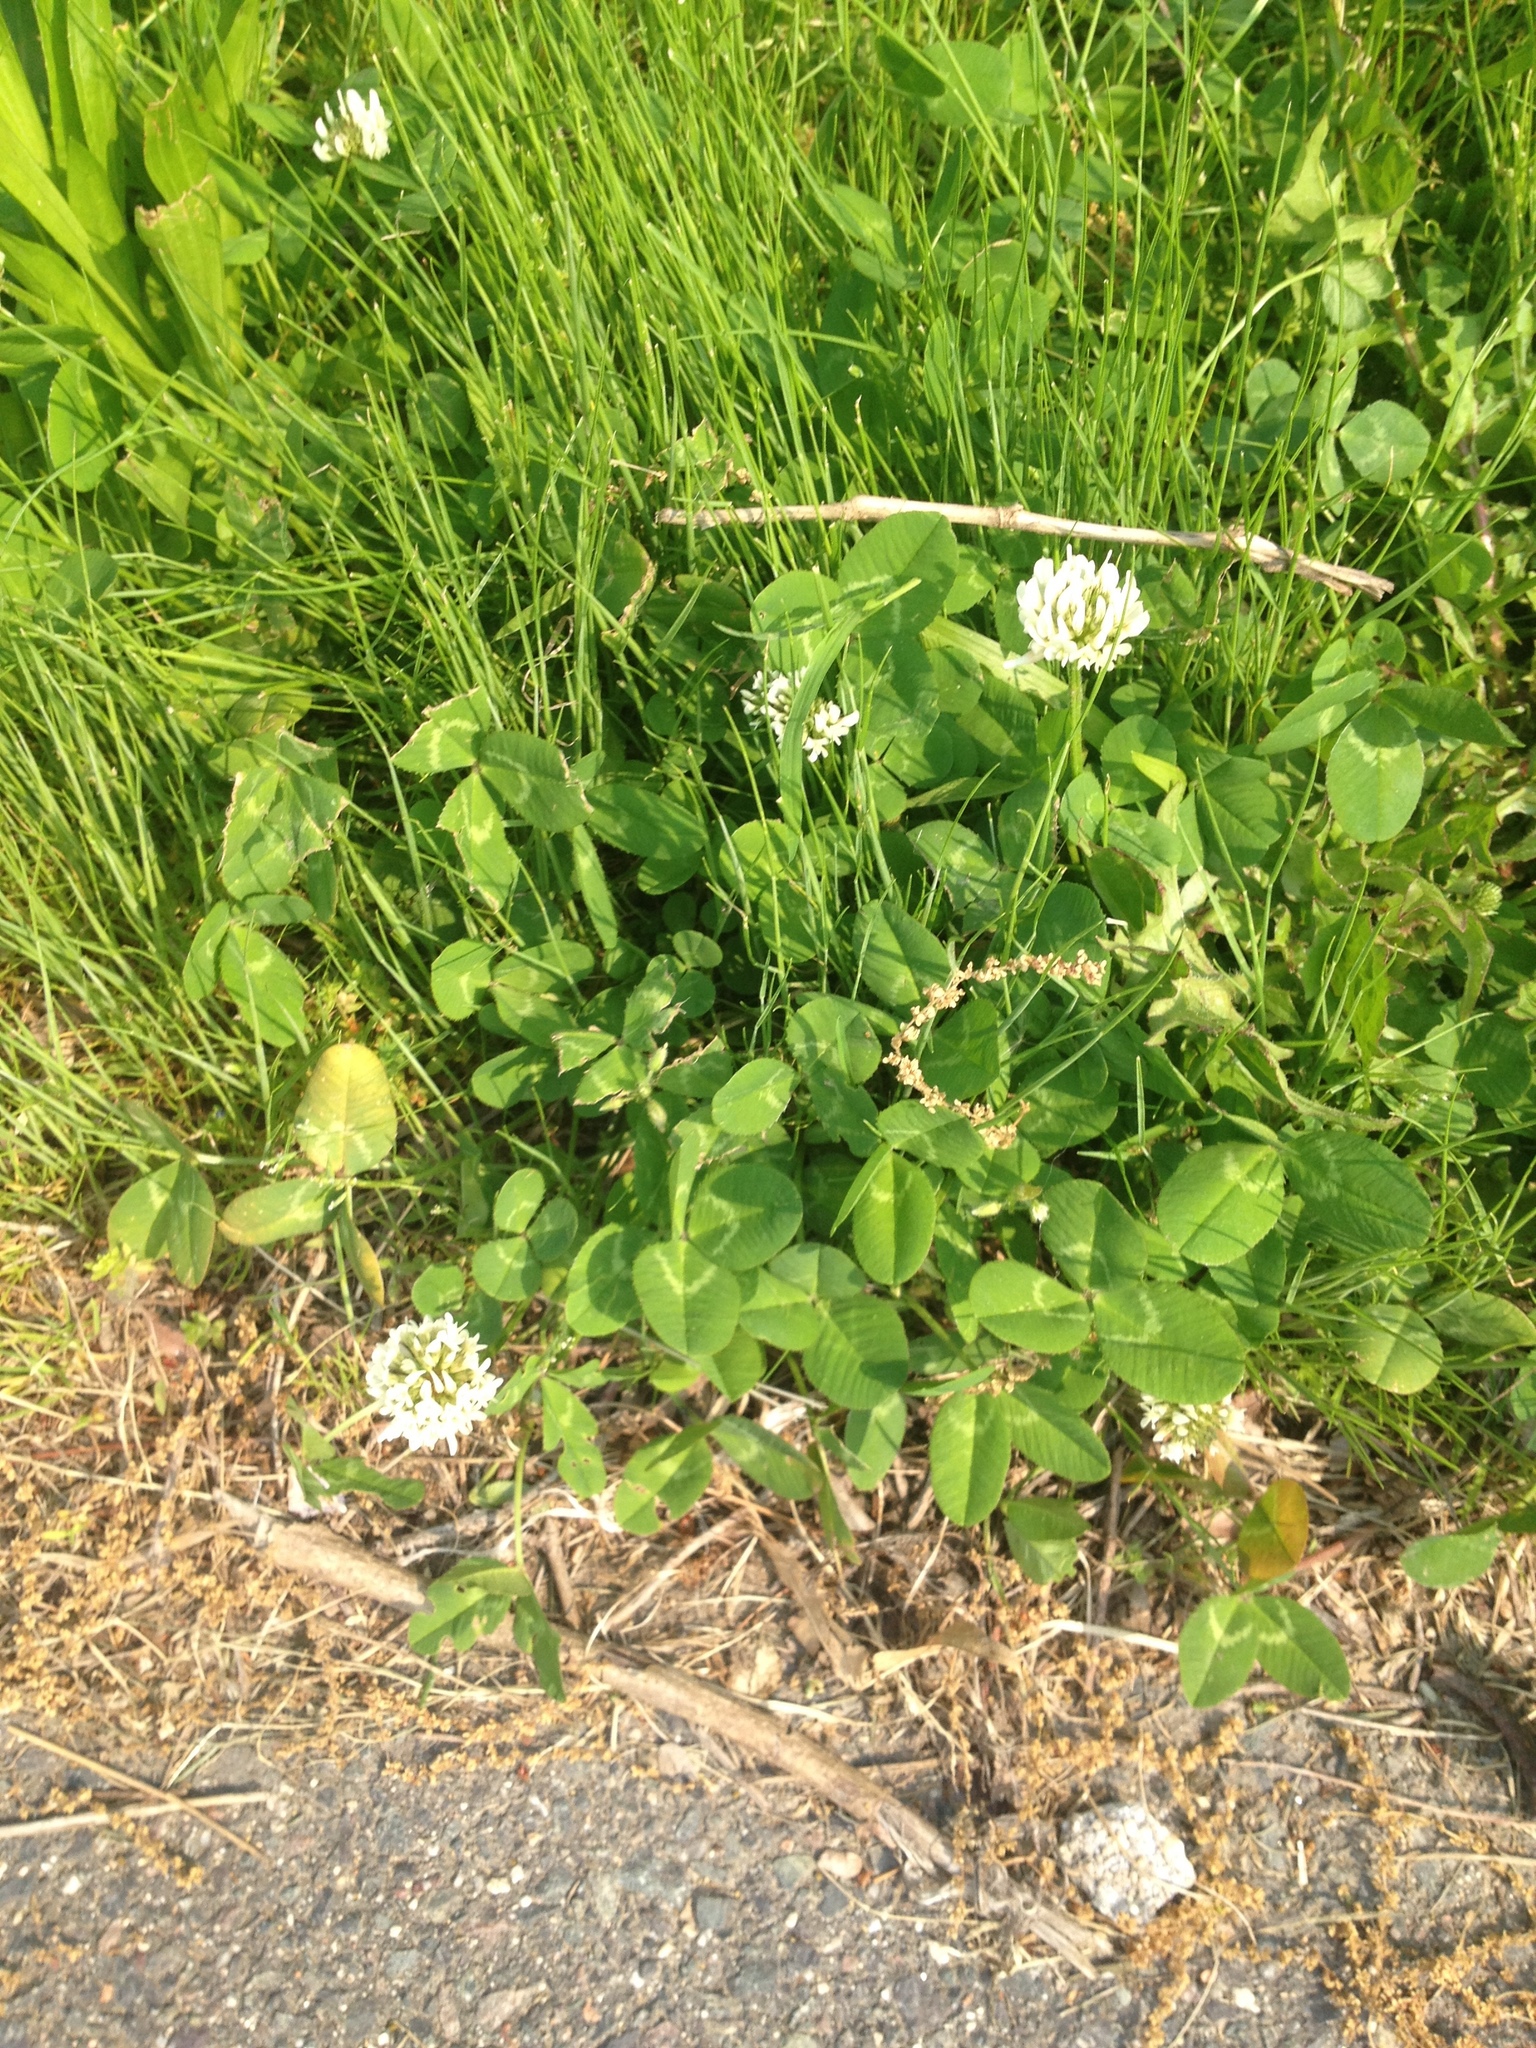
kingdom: Plantae
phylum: Tracheophyta
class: Magnoliopsida
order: Fabales
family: Fabaceae
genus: Trifolium
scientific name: Trifolium repens
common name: White clover
